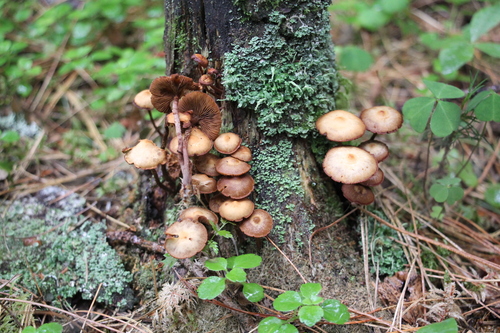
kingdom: Fungi
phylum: Basidiomycota
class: Agaricomycetes
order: Agaricales
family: Strophariaceae
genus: Pholiota
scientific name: Pholiota lignicola
